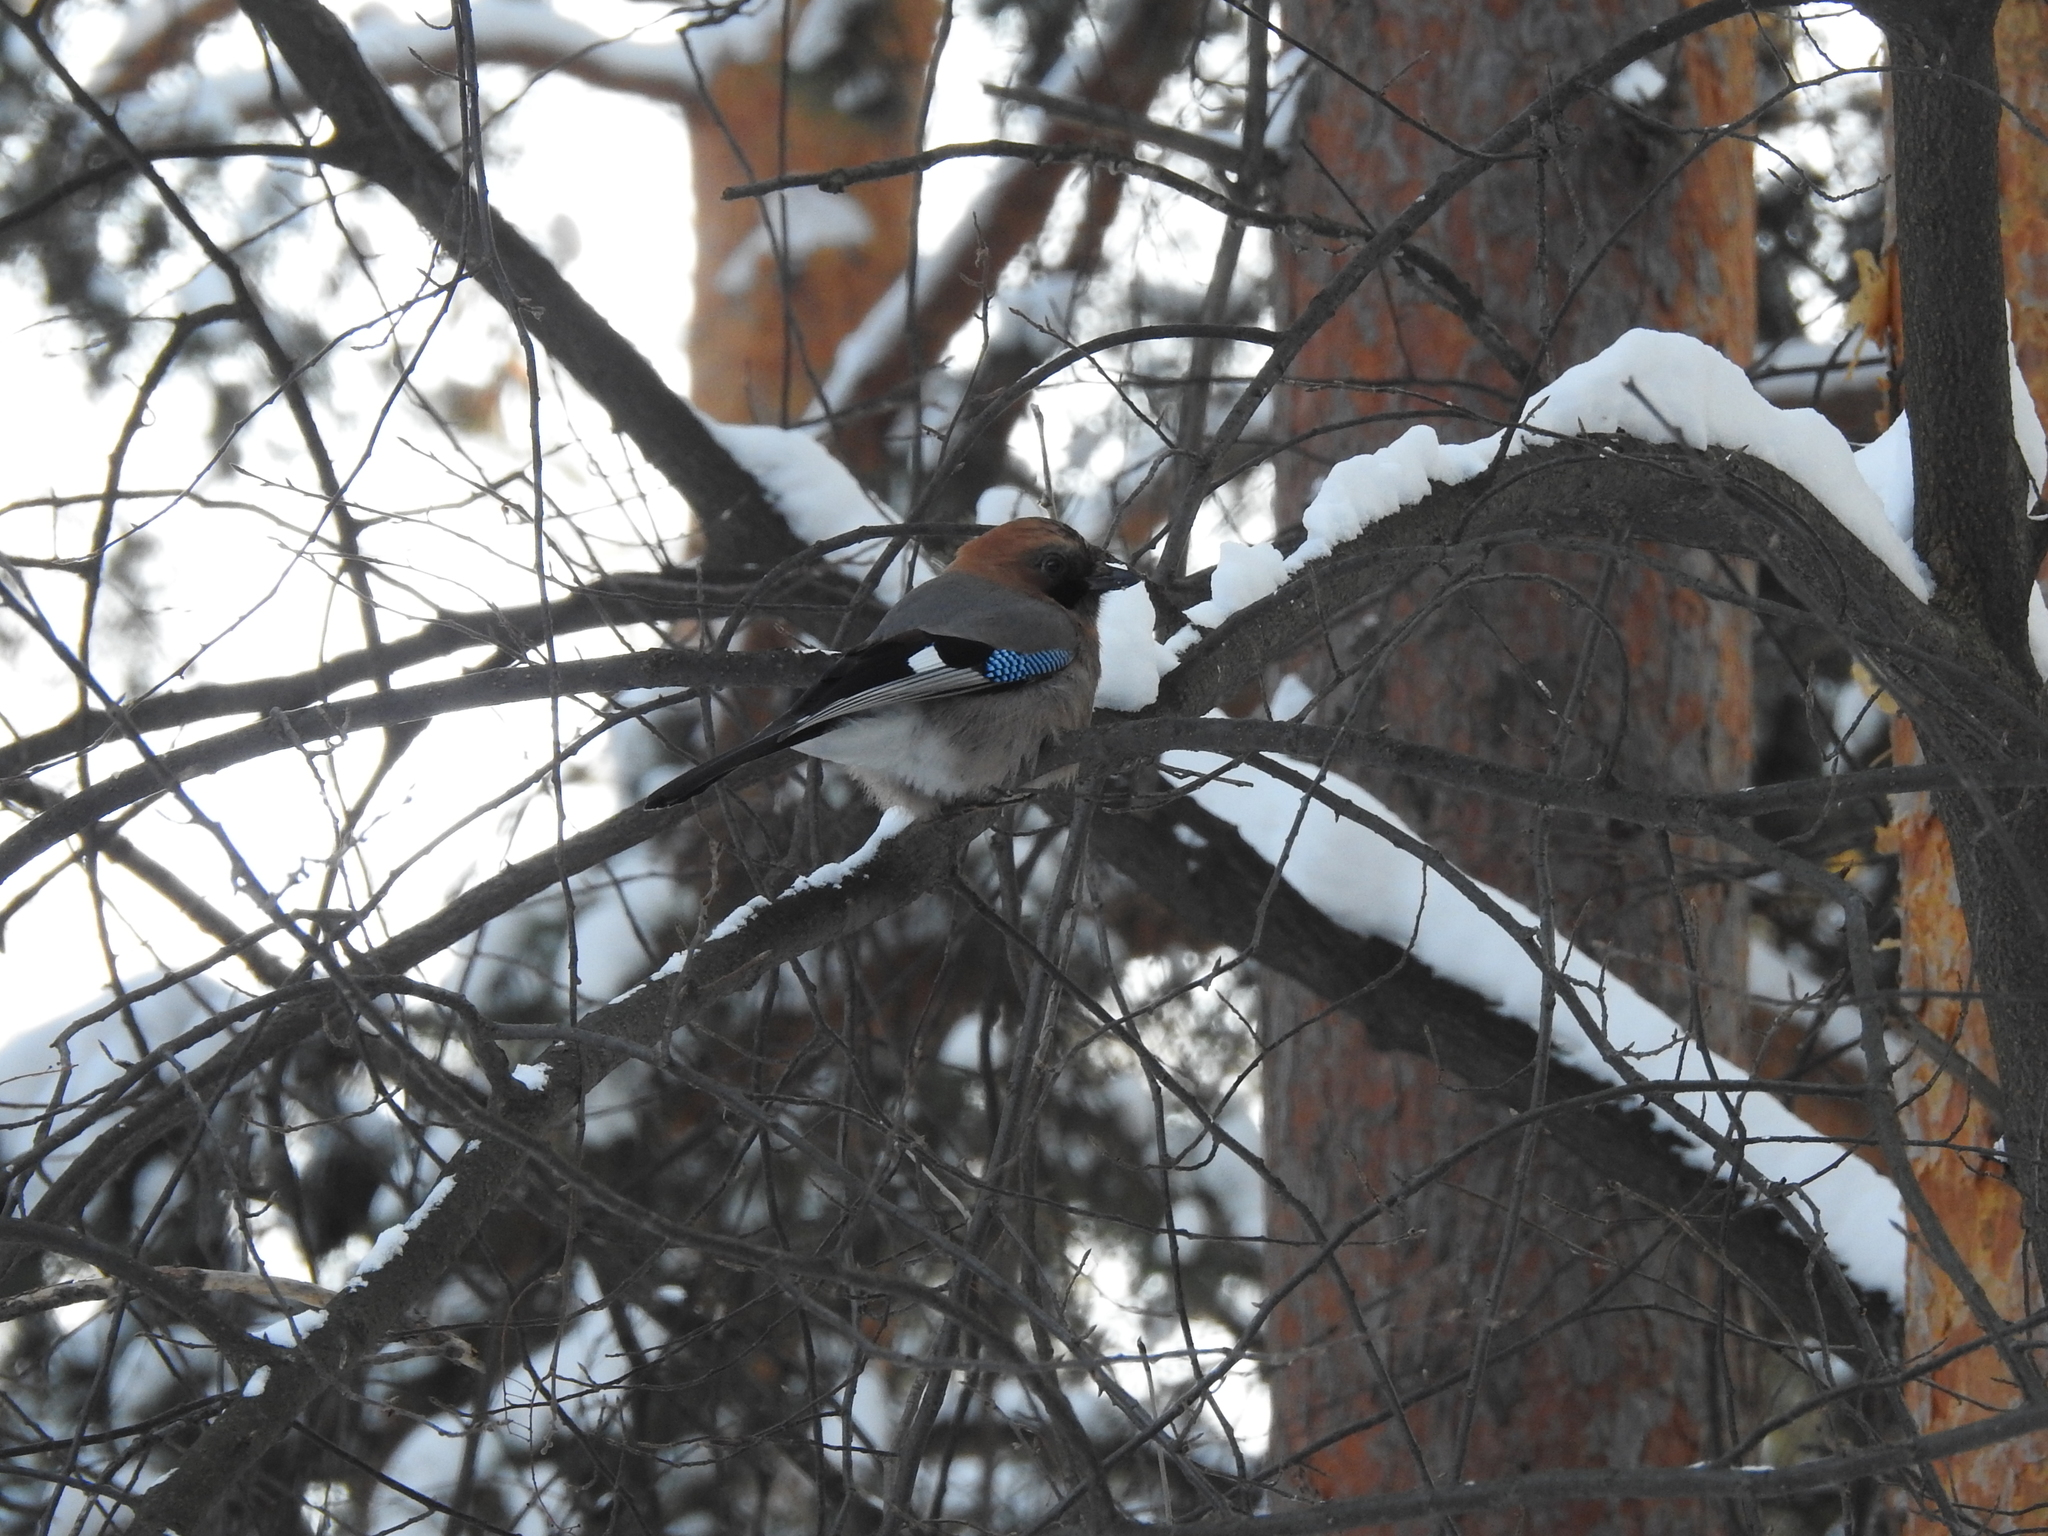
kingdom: Animalia
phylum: Chordata
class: Aves
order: Passeriformes
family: Corvidae
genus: Garrulus
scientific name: Garrulus glandarius
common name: Eurasian jay
